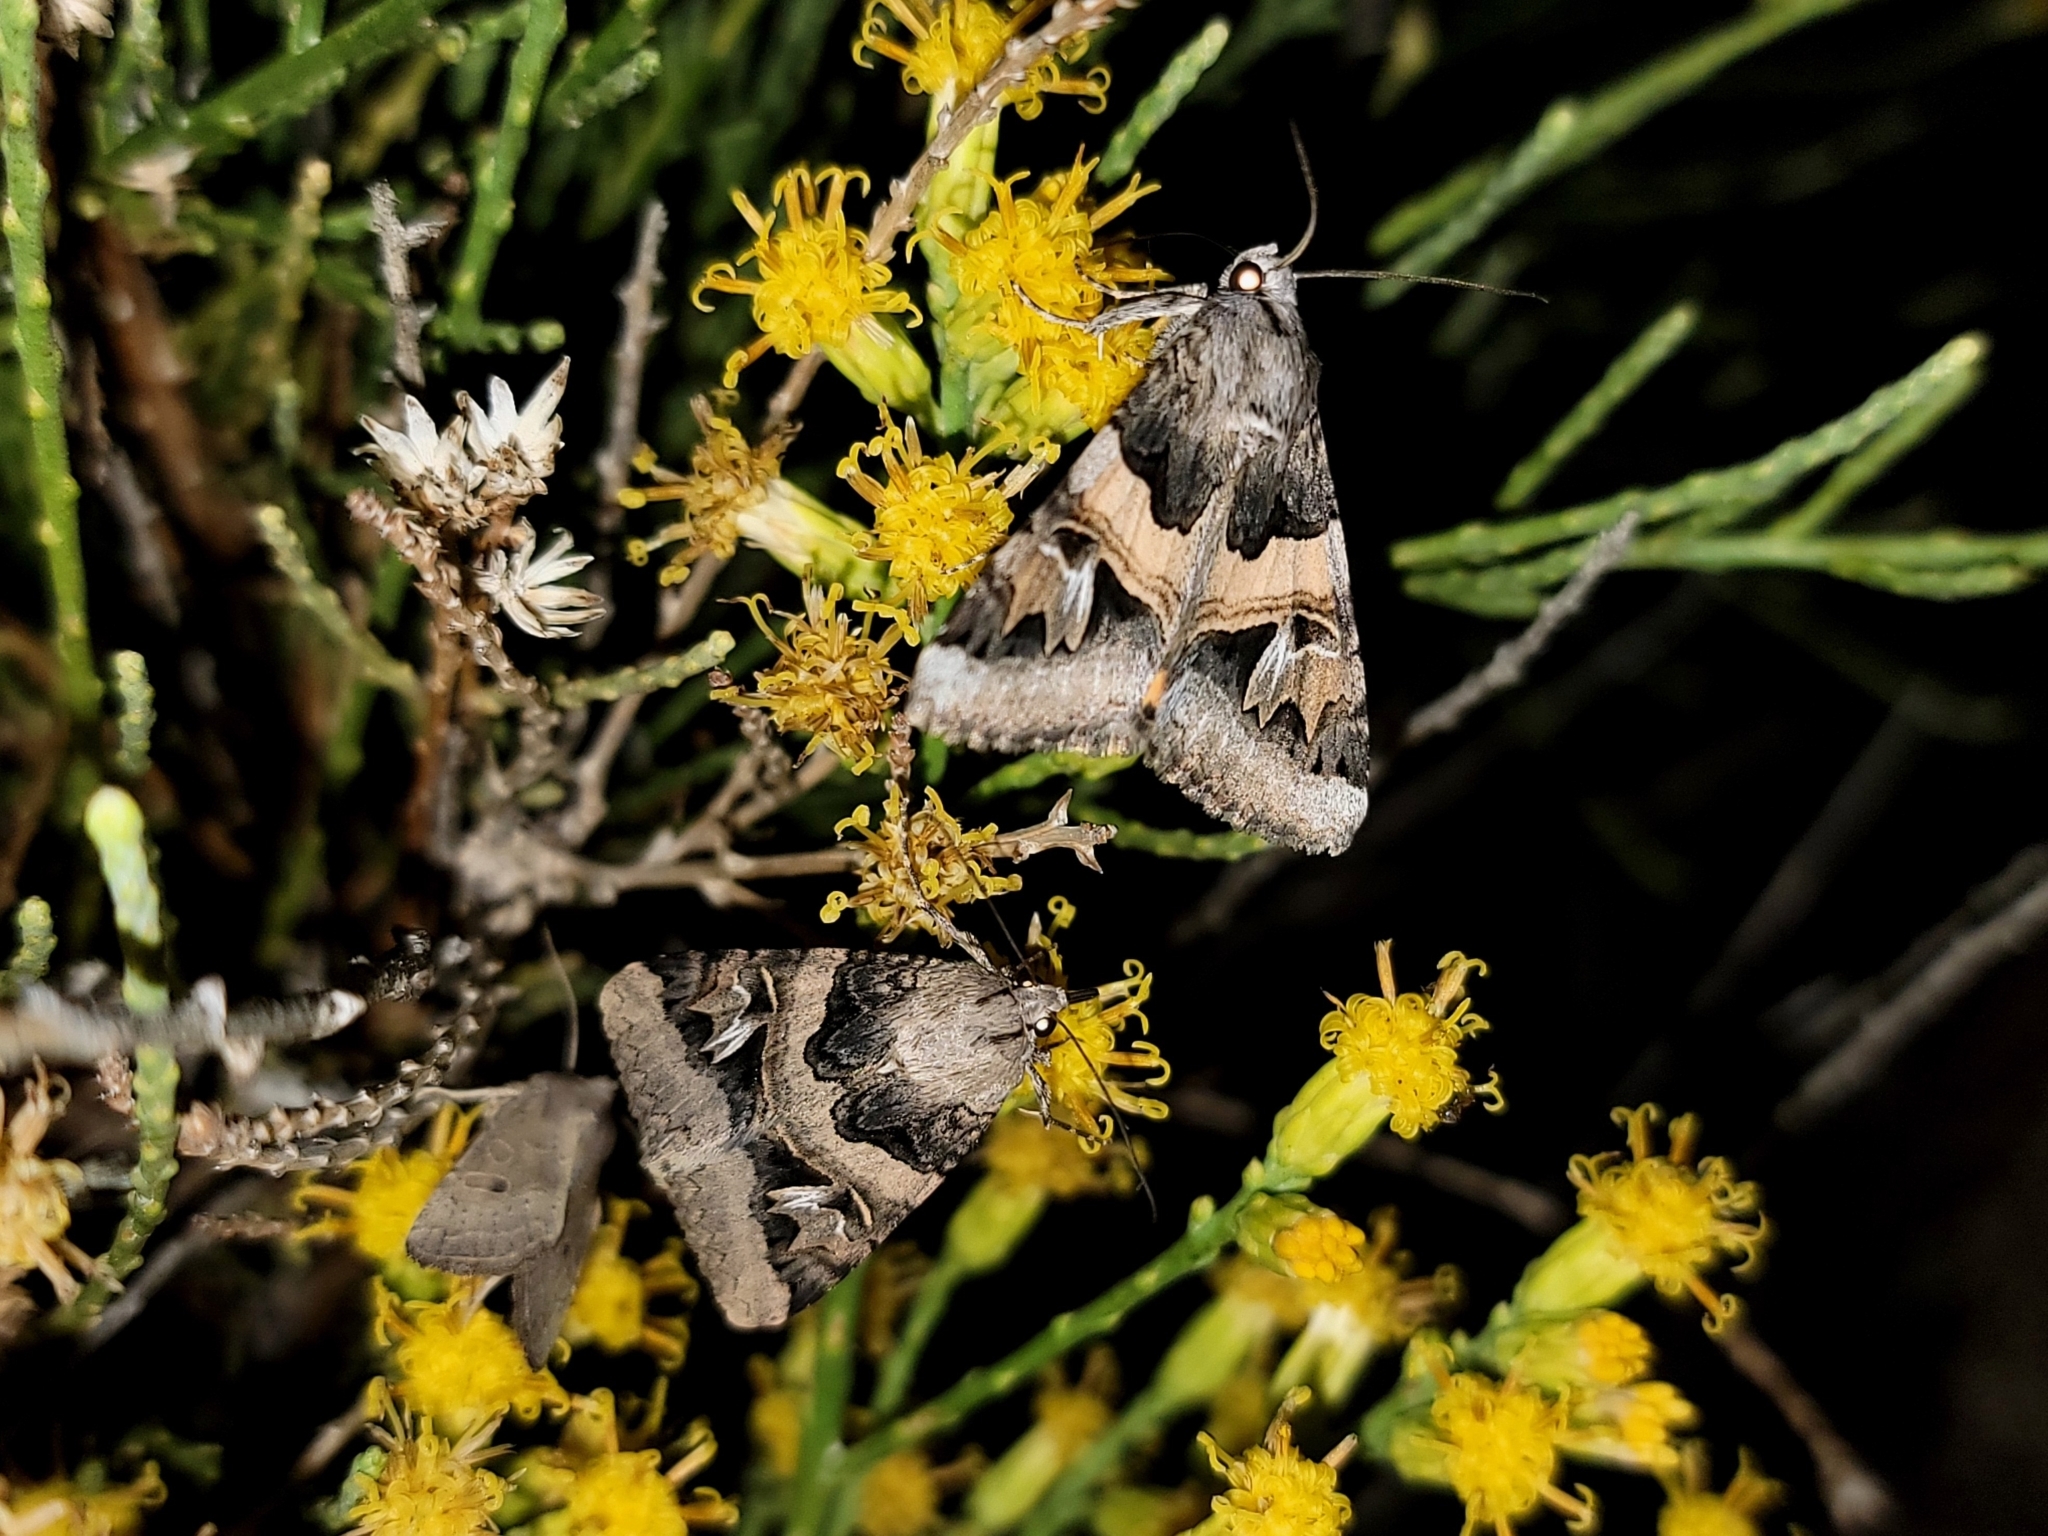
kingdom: Animalia
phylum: Arthropoda
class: Insecta
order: Lepidoptera
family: Erebidae
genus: Drasteria
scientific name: Drasteria divergens
